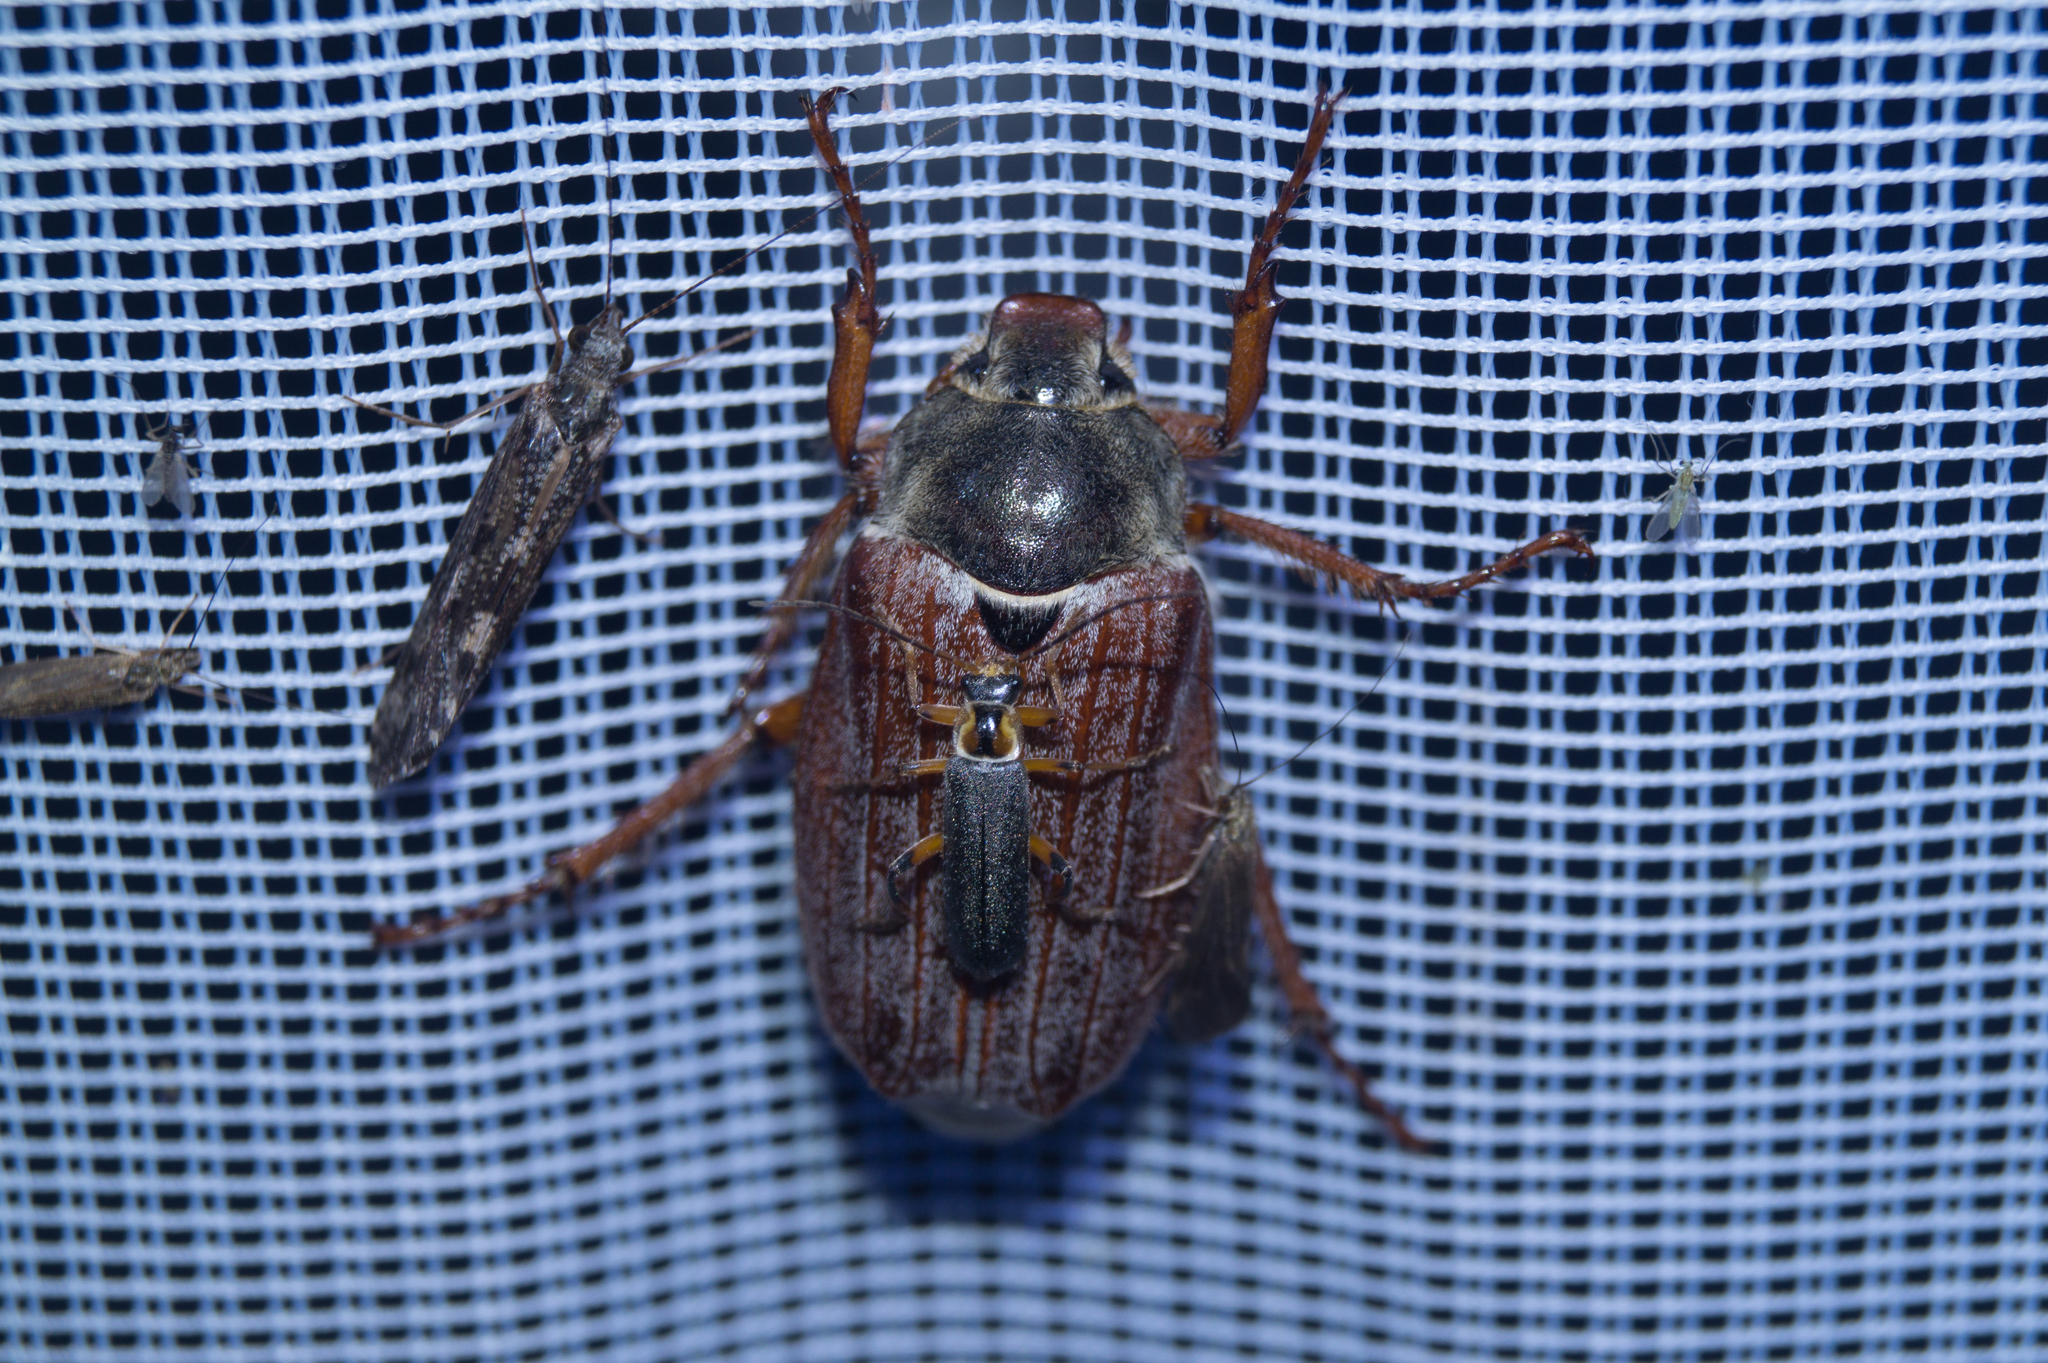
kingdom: Animalia
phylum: Arthropoda
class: Insecta
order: Coleoptera
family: Cantharidae
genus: Cantharis
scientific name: Cantharis nigricans
